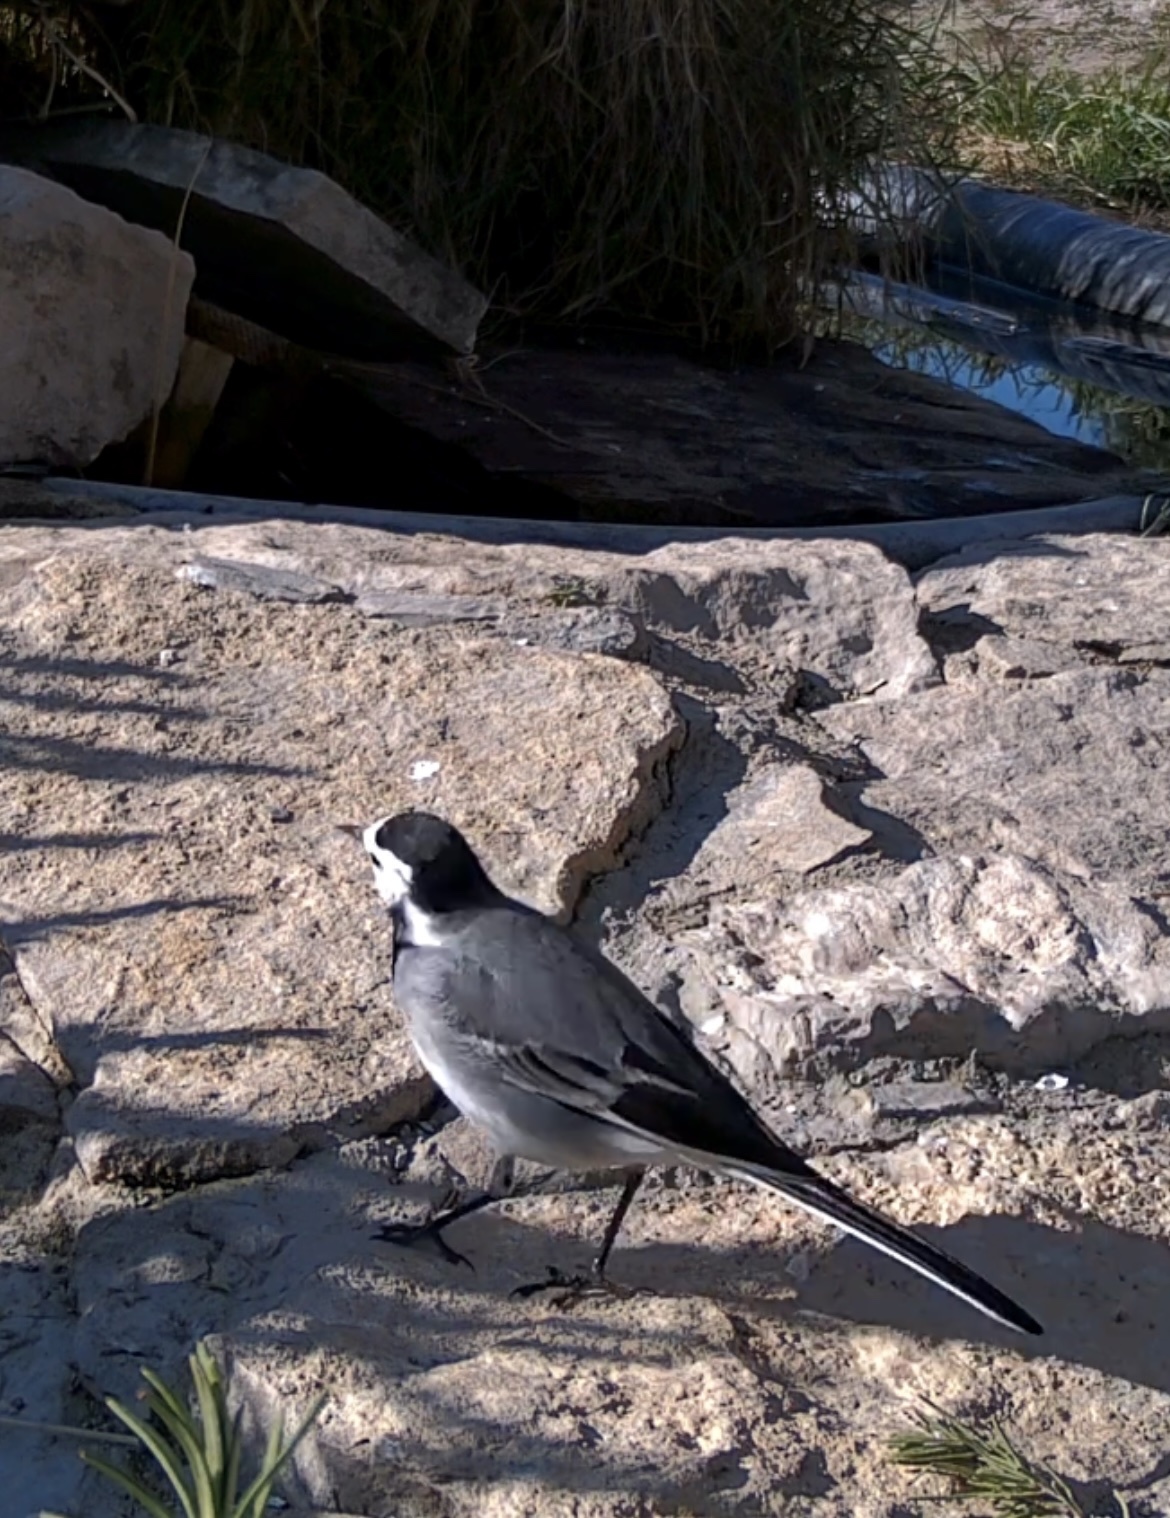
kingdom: Animalia
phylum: Chordata
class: Aves
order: Passeriformes
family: Motacillidae
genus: Motacilla
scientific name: Motacilla alba
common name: White wagtail
